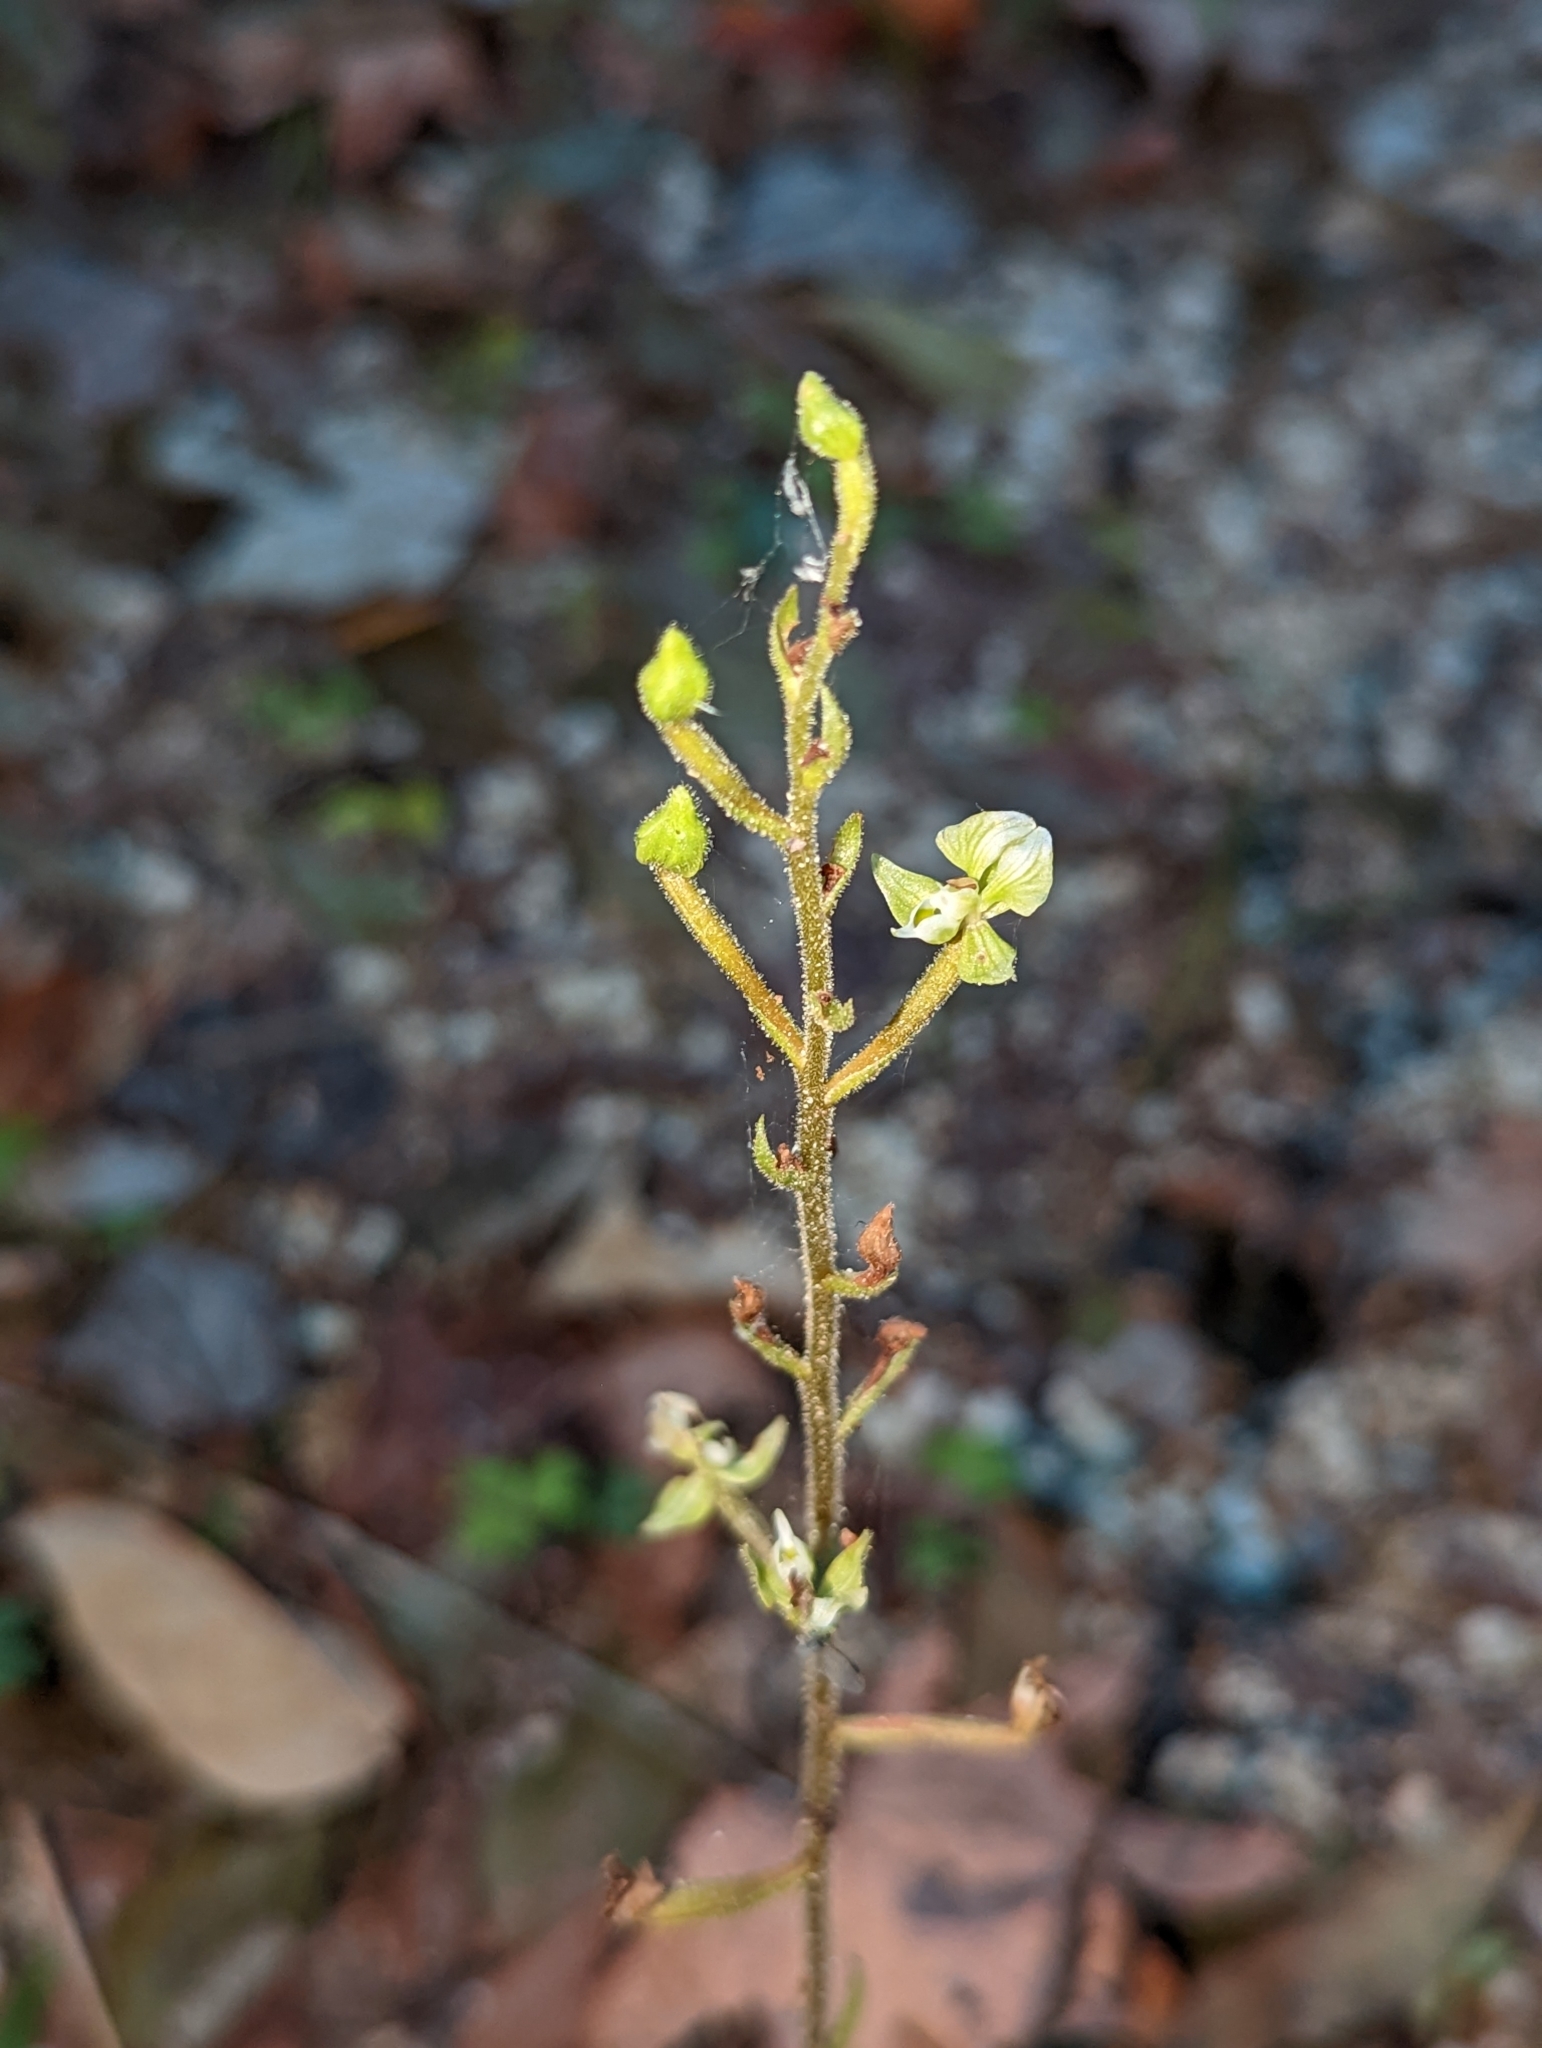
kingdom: Plantae
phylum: Tracheophyta
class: Liliopsida
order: Asparagales
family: Orchidaceae
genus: Ponthieva
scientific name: Ponthieva racemosa
